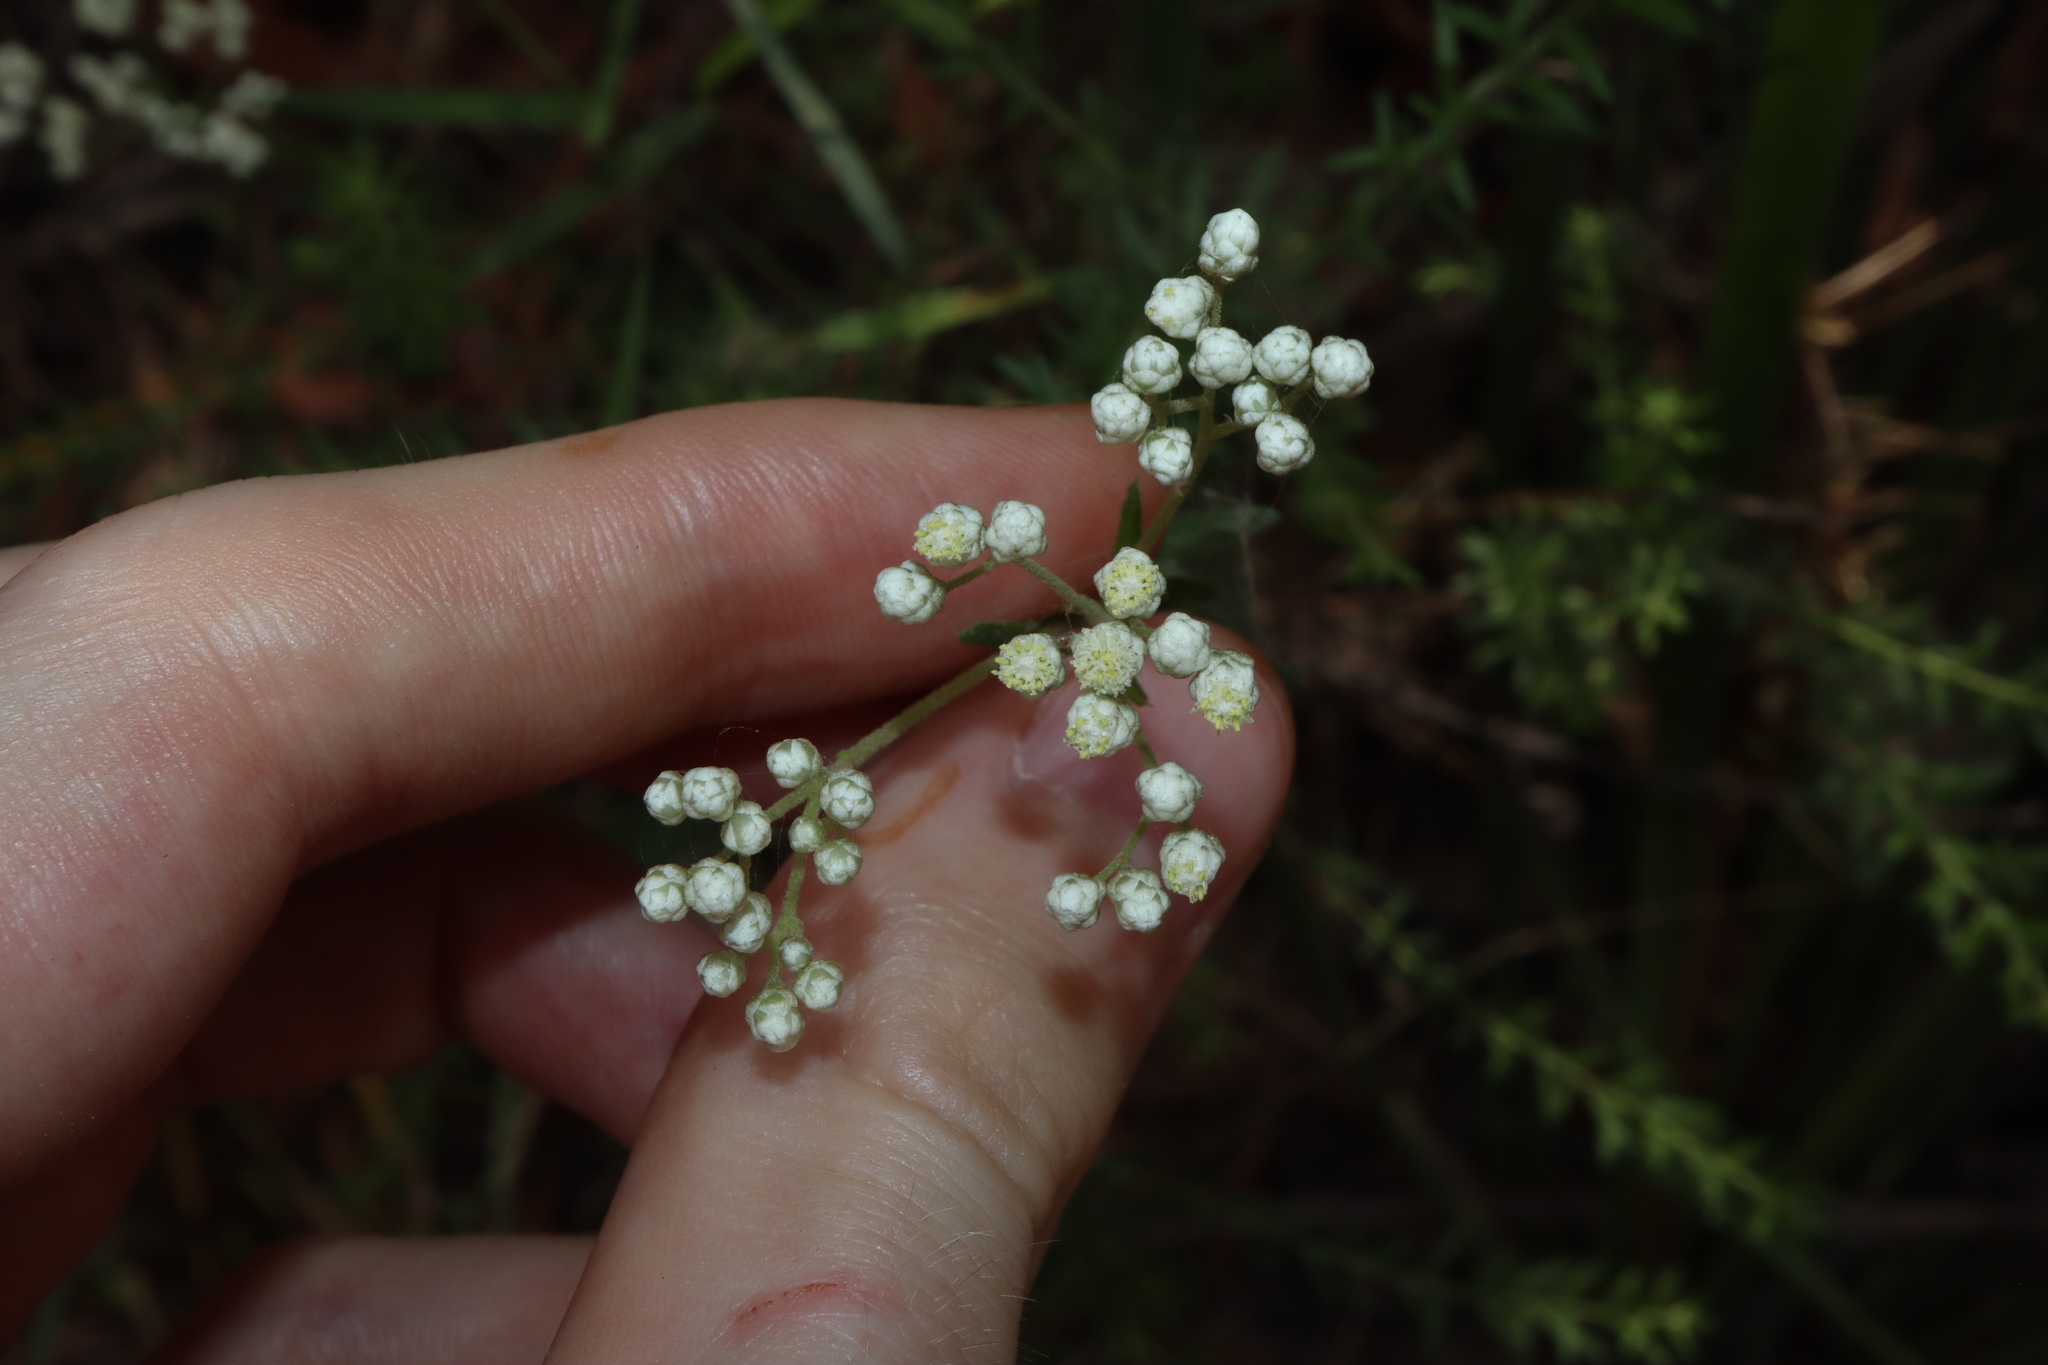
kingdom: Plantae
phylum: Tracheophyta
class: Magnoliopsida
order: Asterales
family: Asteraceae
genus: Ozothamnus
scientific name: Ozothamnus diosmifolius
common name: White-dogwood
